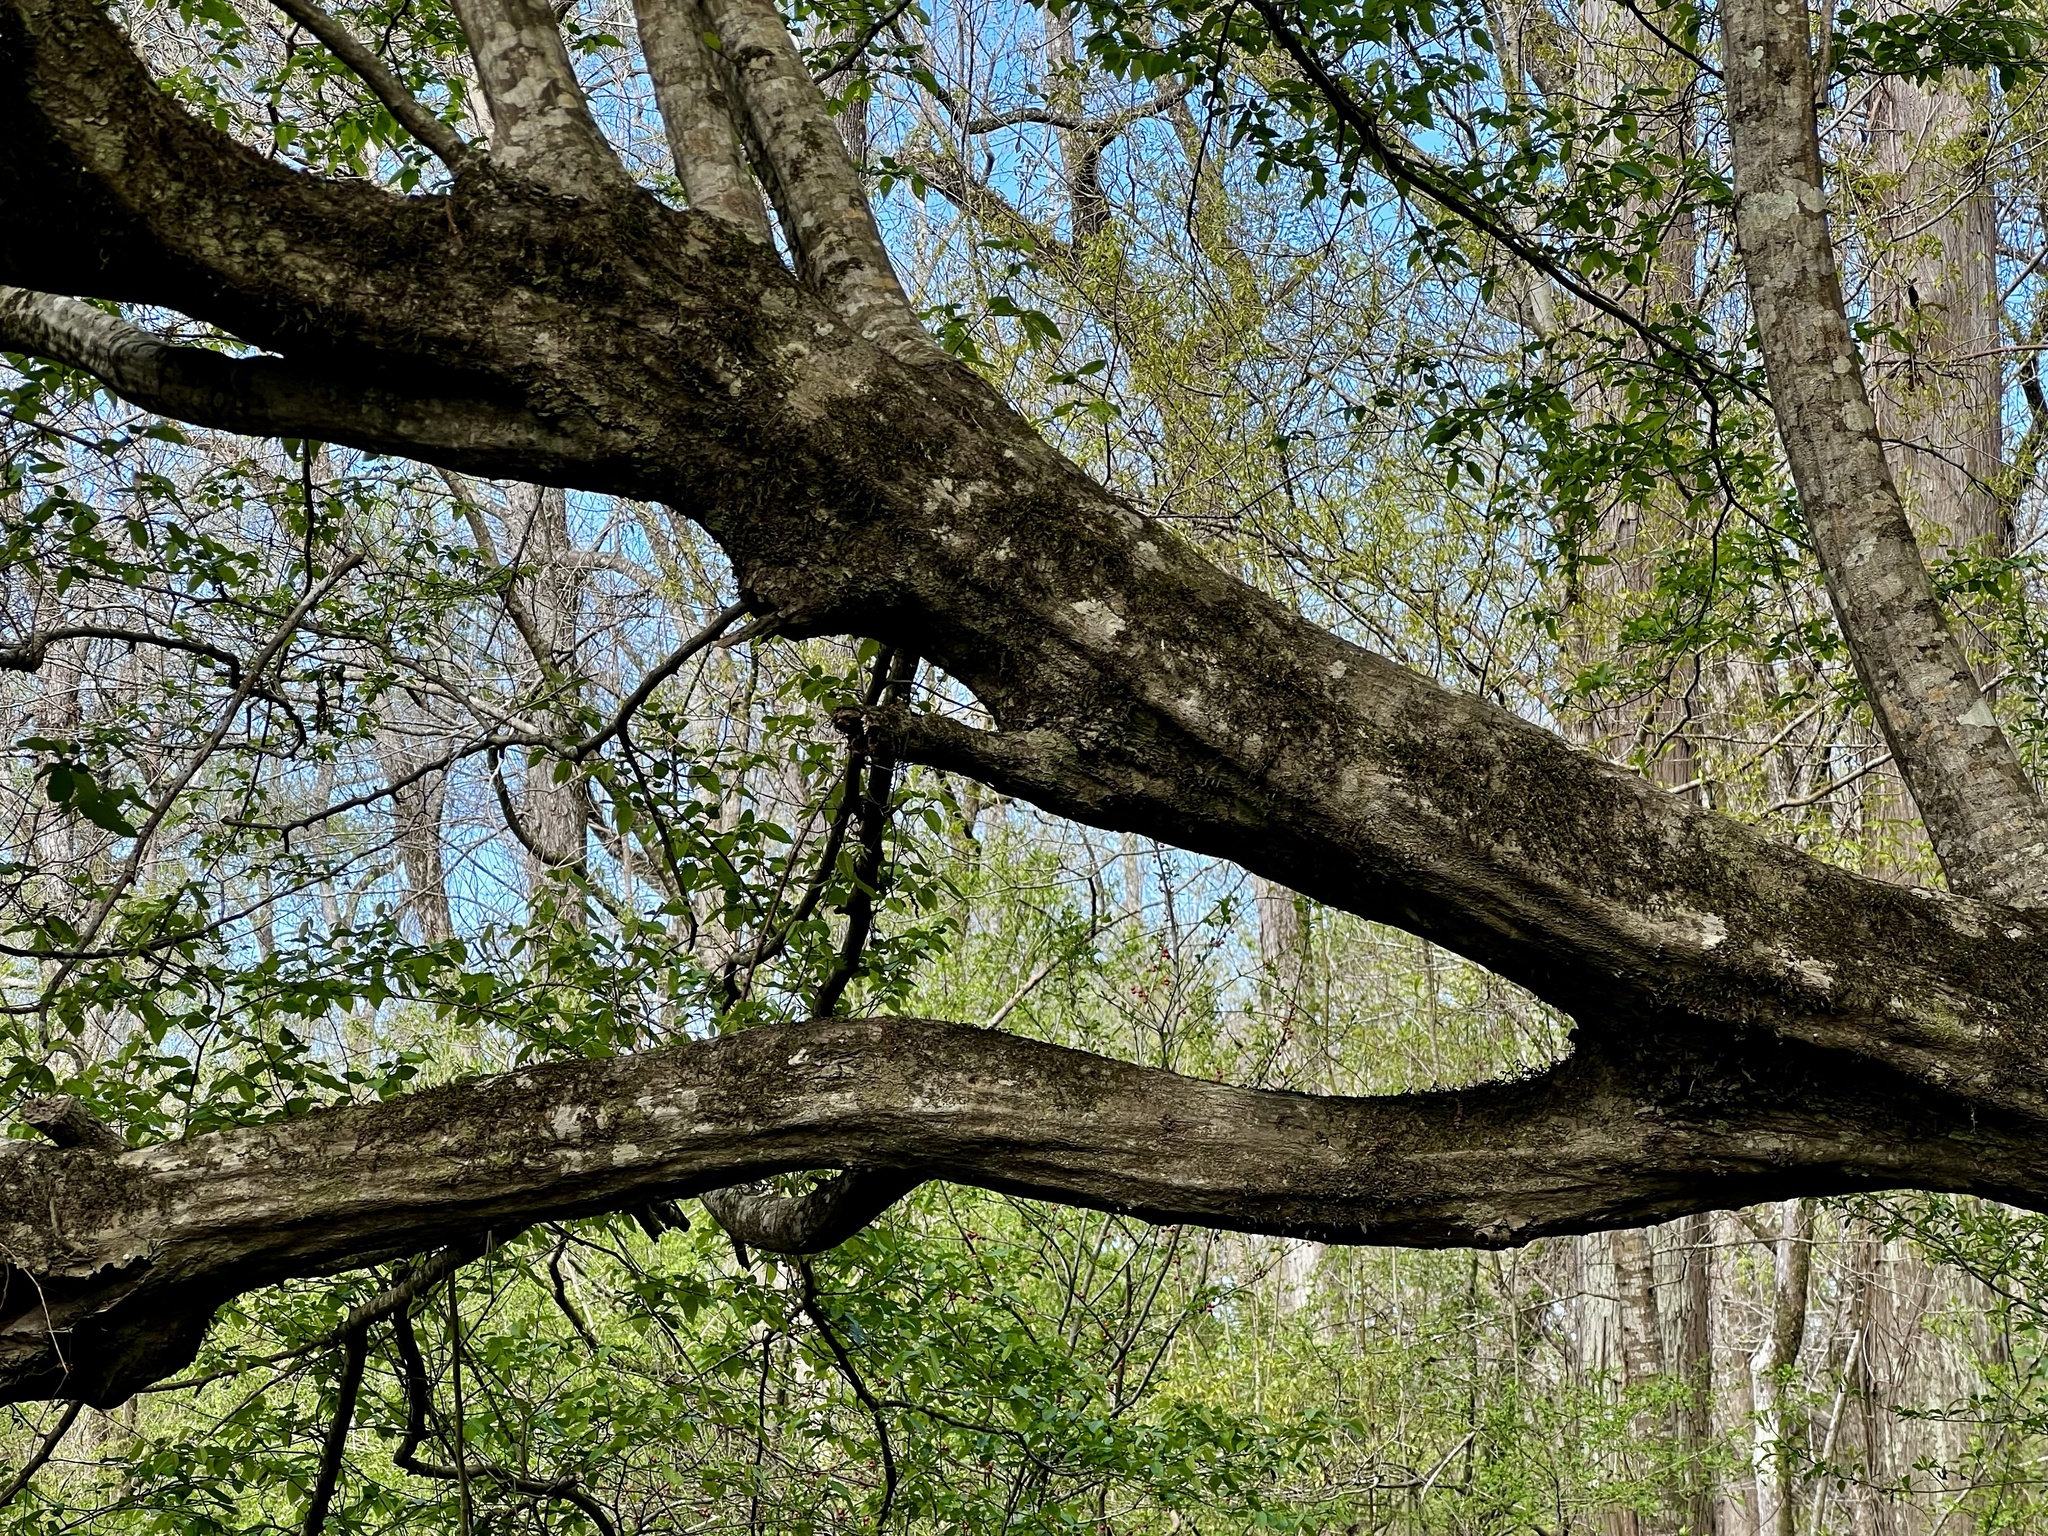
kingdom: Plantae
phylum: Tracheophyta
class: Magnoliopsida
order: Fagales
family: Betulaceae
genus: Carpinus
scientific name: Carpinus caroliniana
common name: American hornbeam
